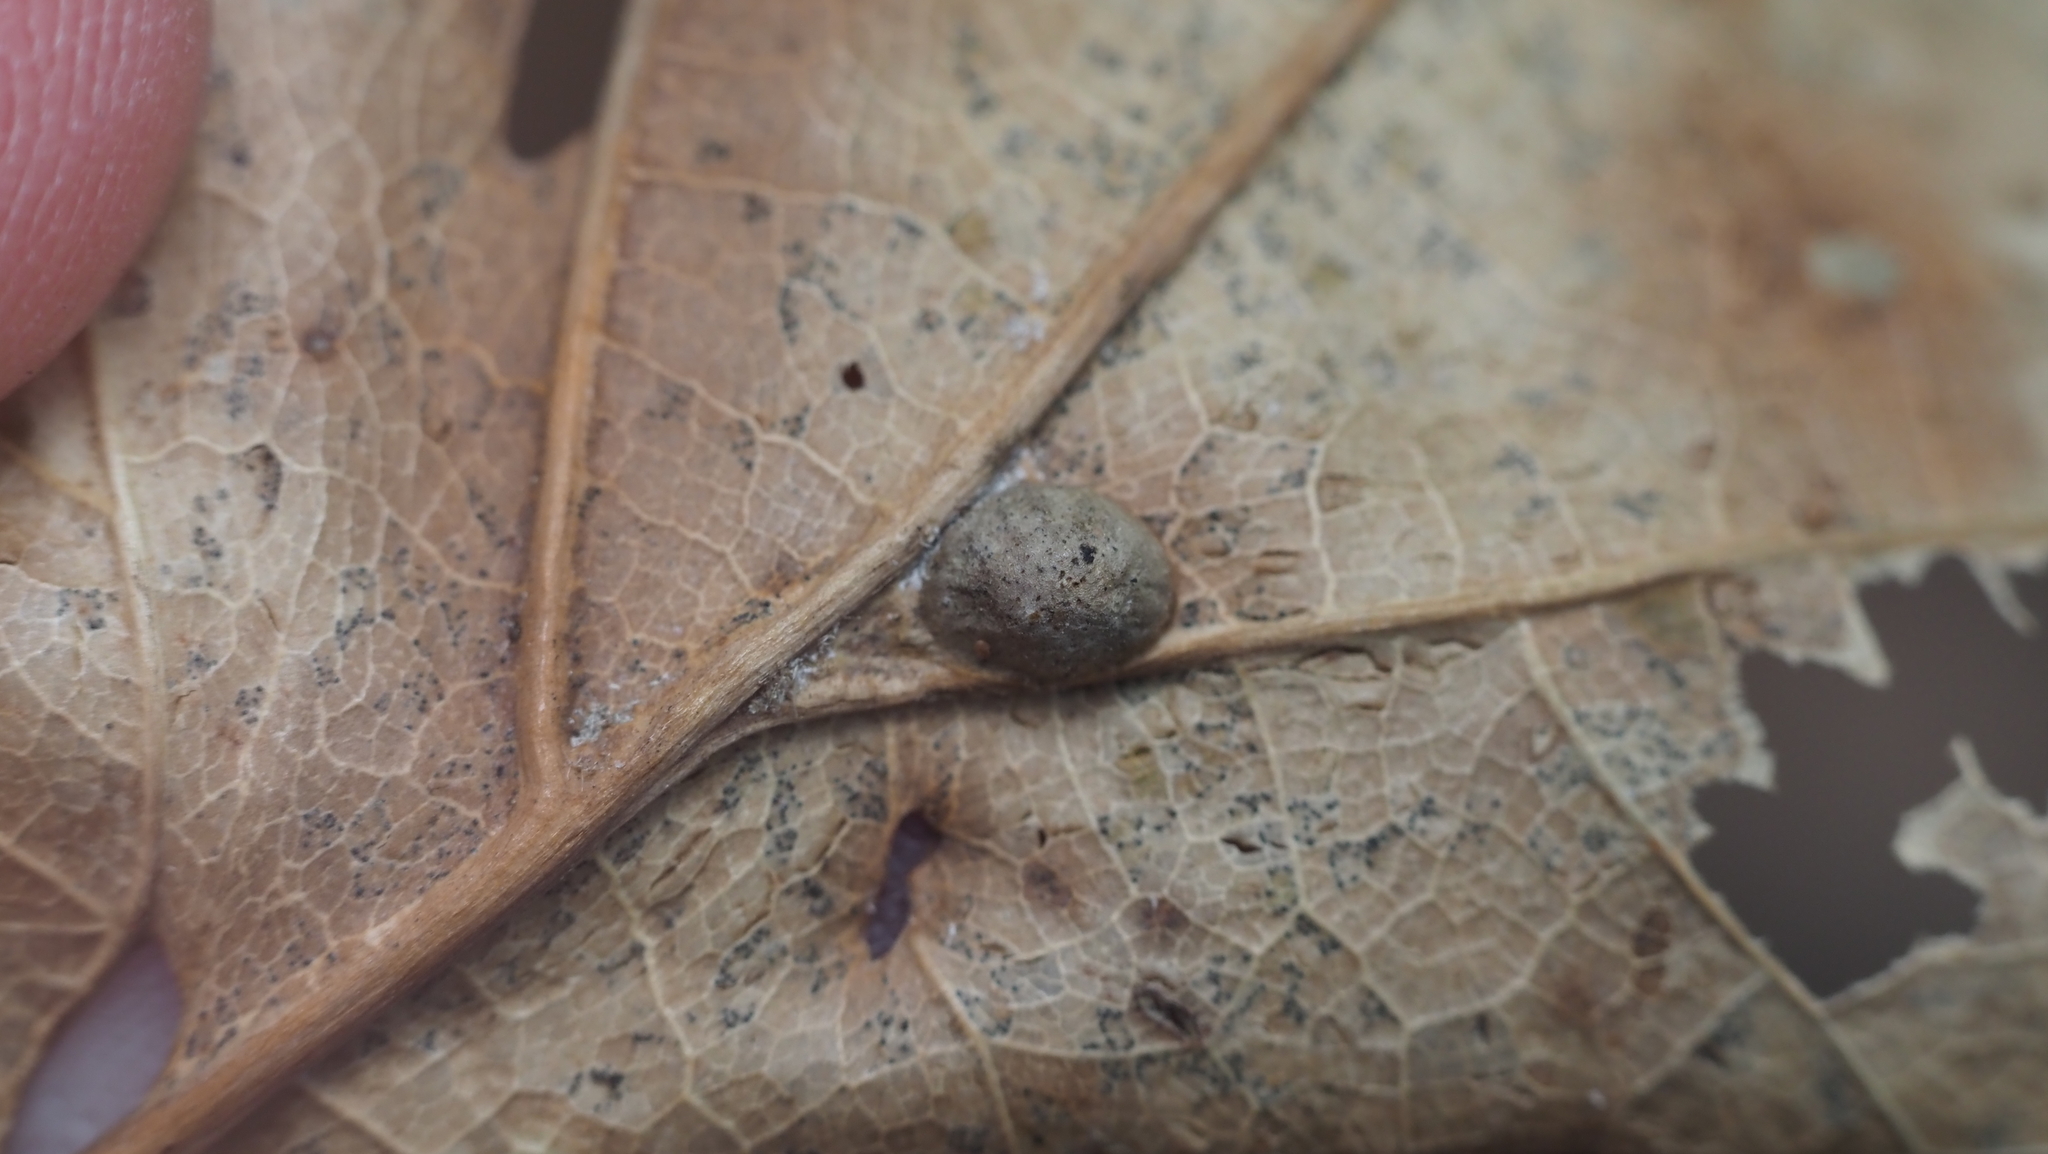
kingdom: Animalia
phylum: Arthropoda
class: Insecta
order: Hymenoptera
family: Cynipidae
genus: Dryocosmus
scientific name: Dryocosmus
